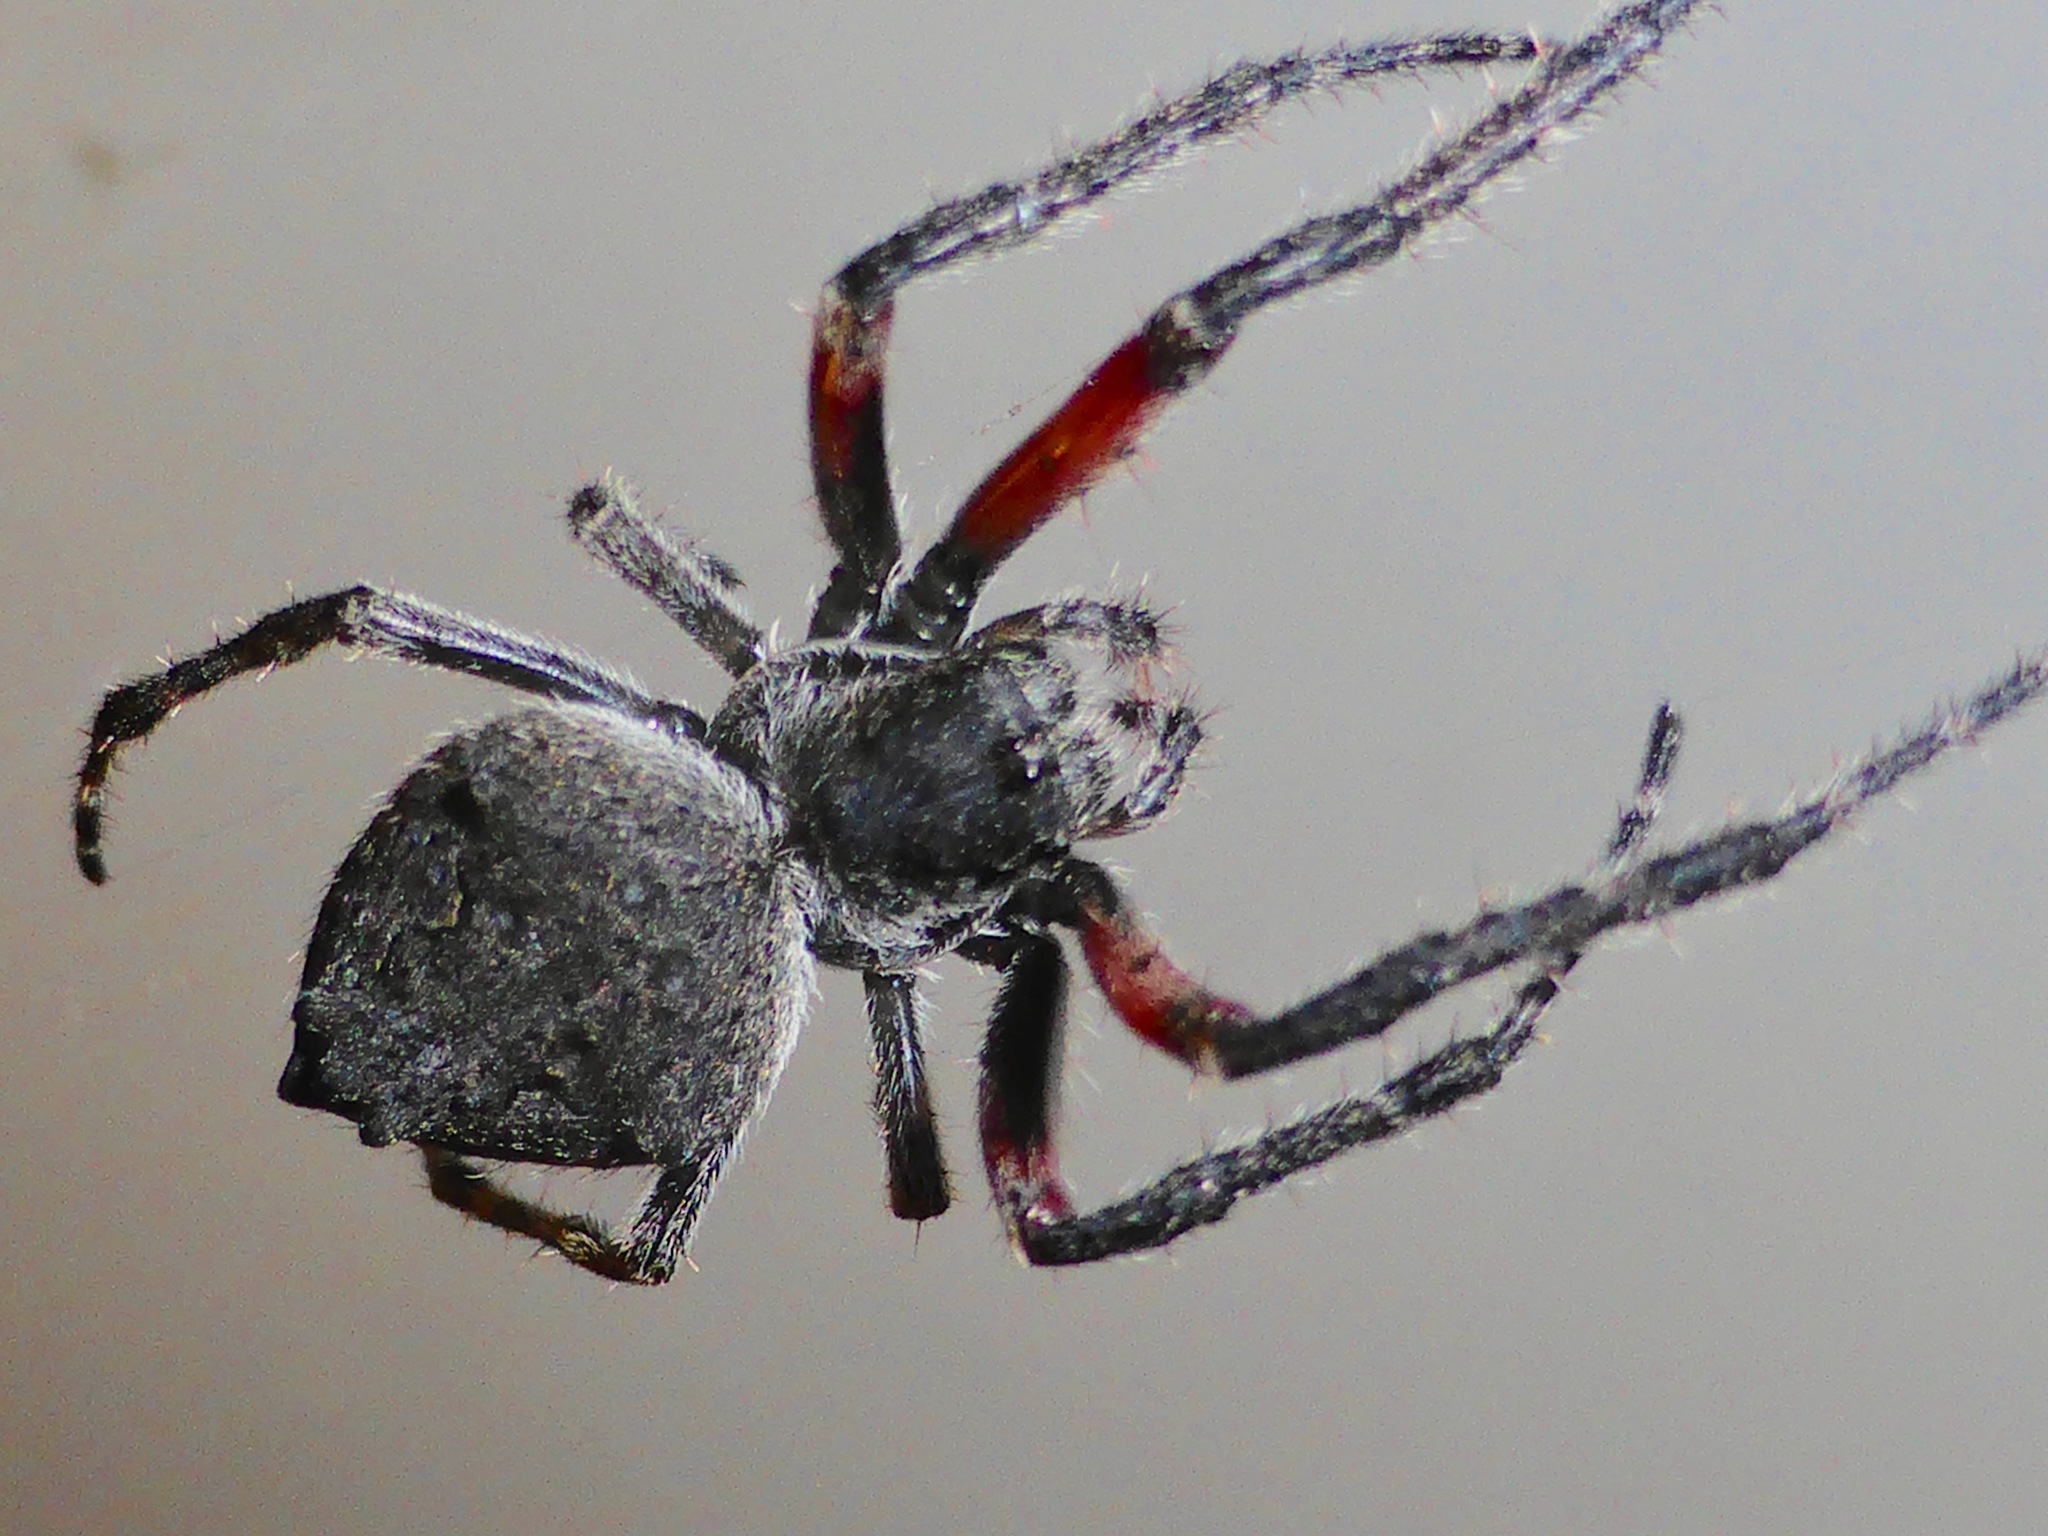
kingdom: Animalia
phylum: Arthropoda
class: Arachnida
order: Araneae
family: Araneidae
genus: Eriophora
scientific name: Eriophora pustulosa
